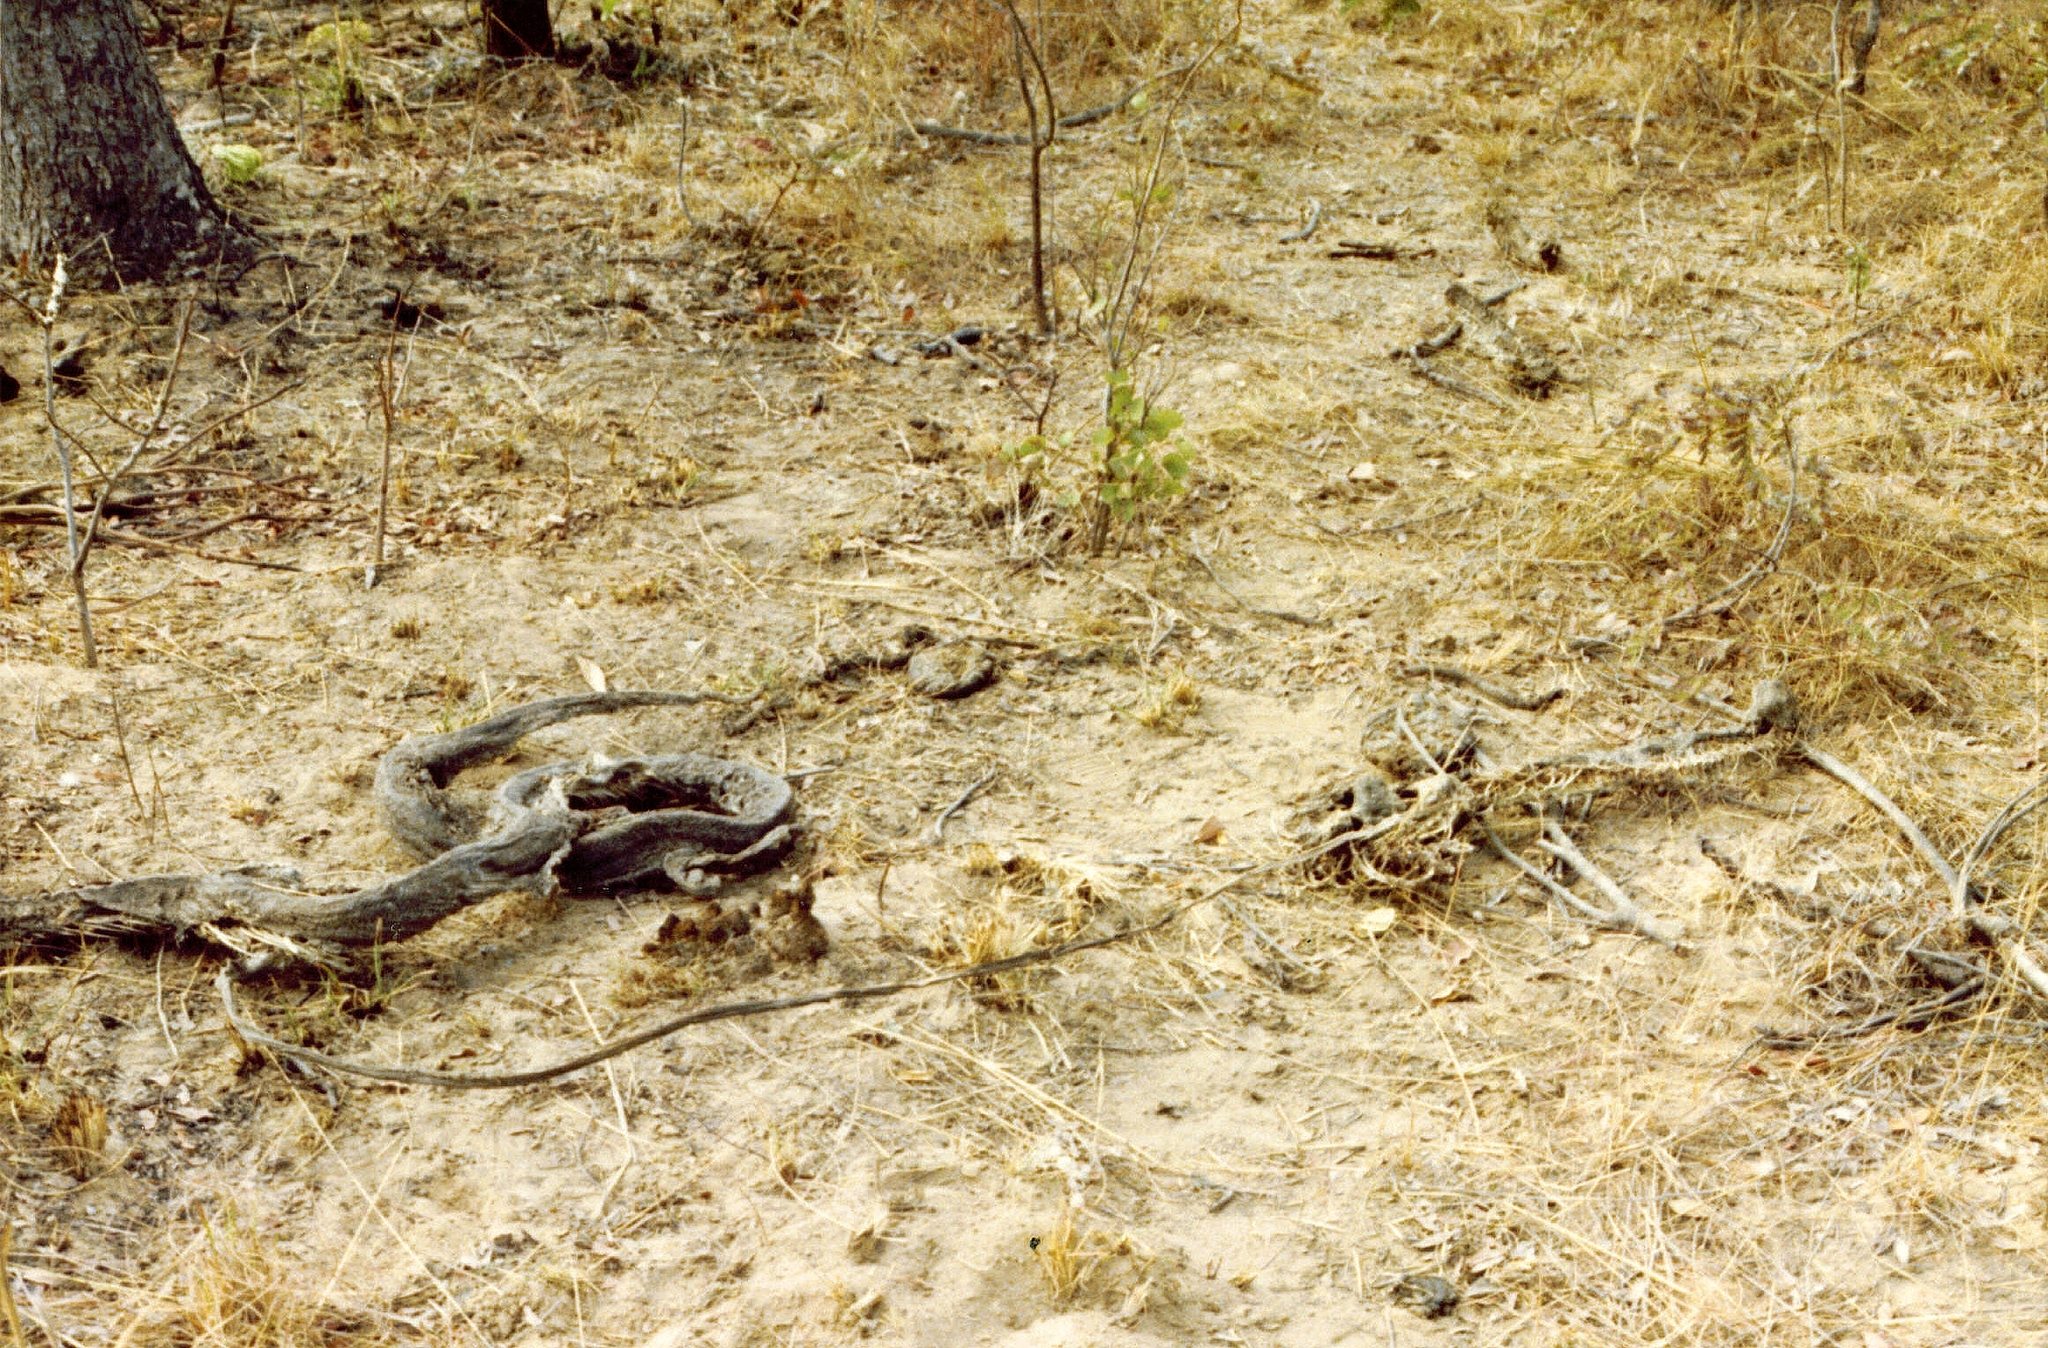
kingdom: Animalia
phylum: Chordata
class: Squamata
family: Pythonidae
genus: Python
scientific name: Python natalensis
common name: Southern african rock python
